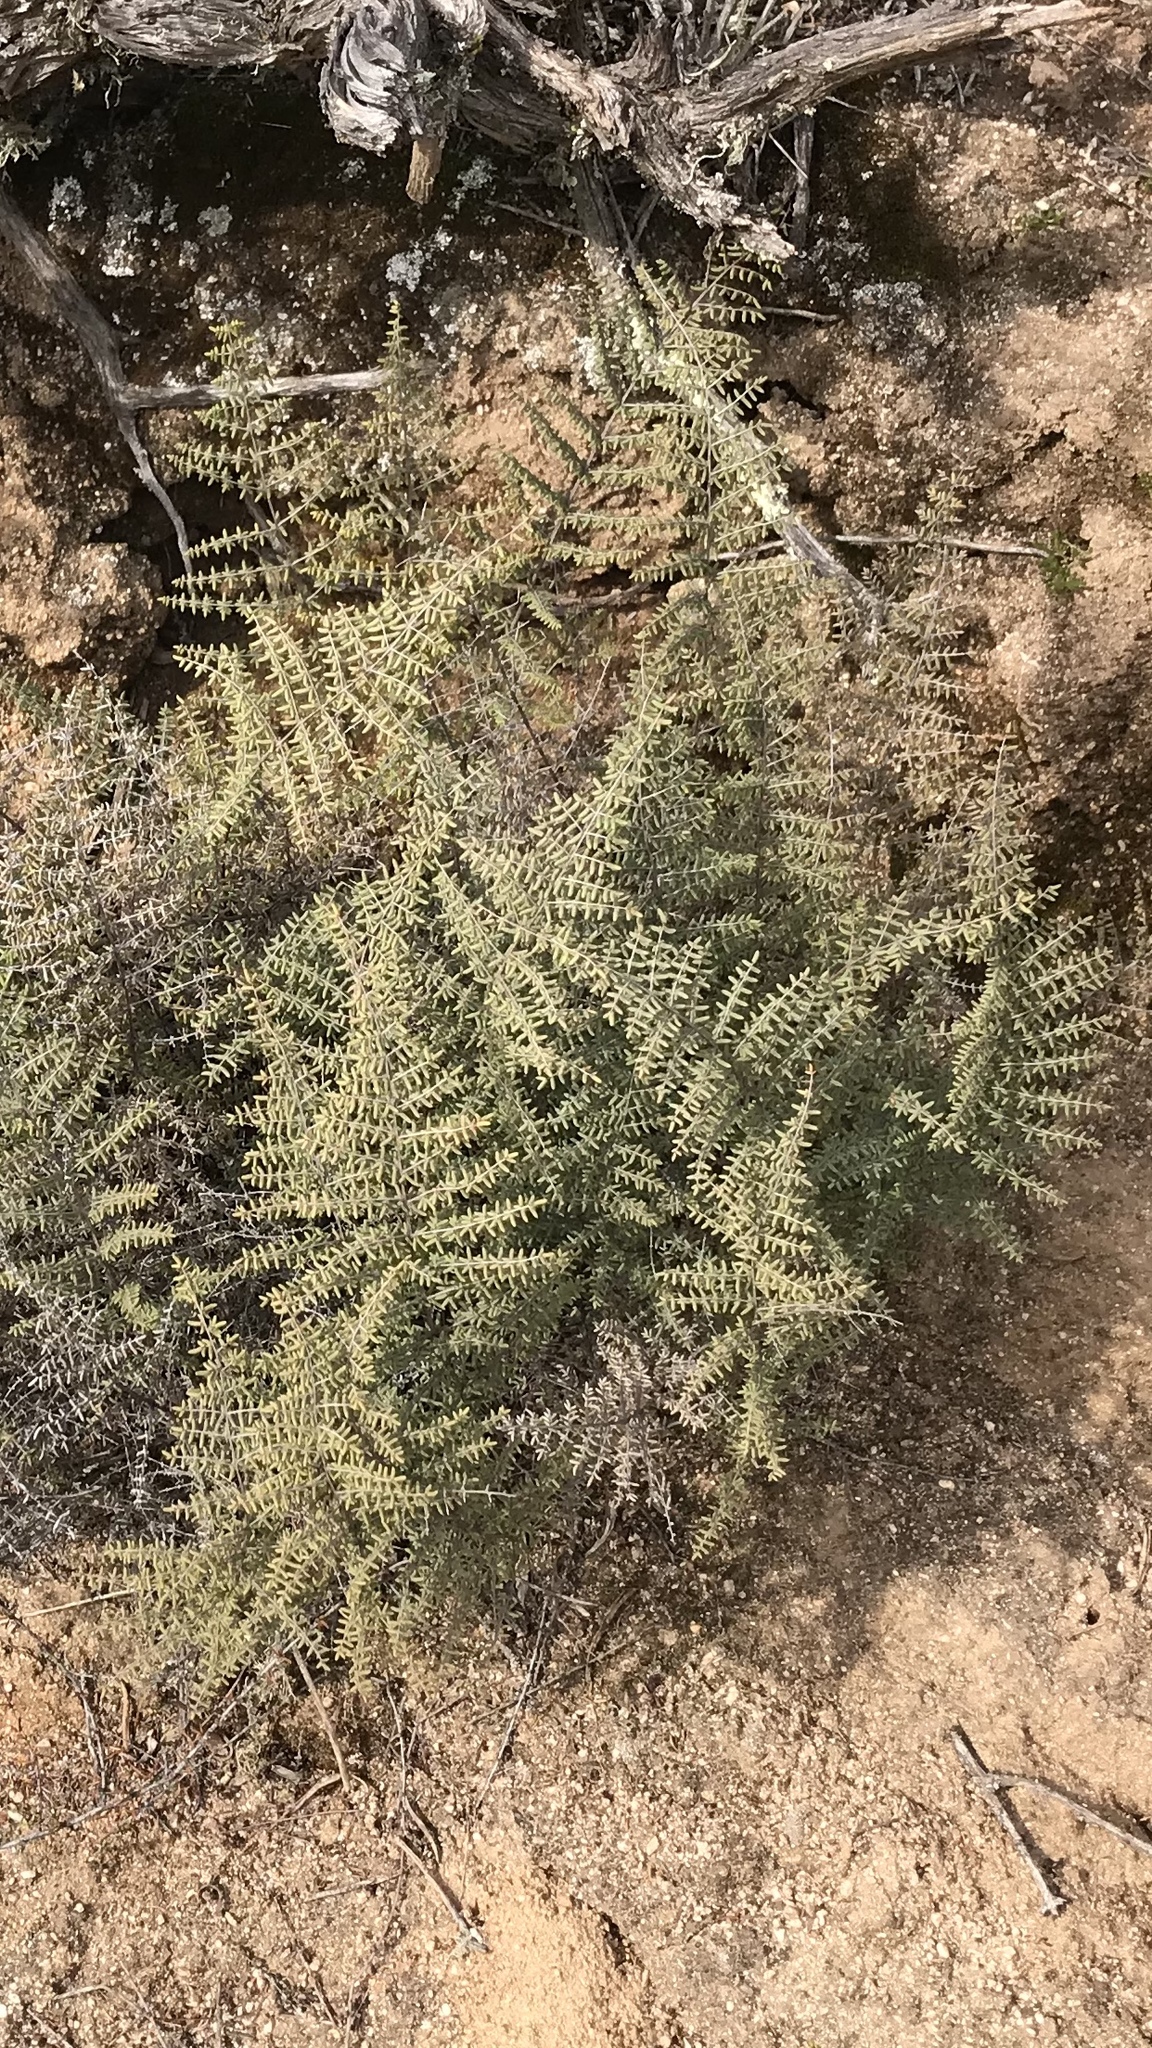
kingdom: Plantae
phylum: Tracheophyta
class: Polypodiopsida
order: Polypodiales
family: Pteridaceae
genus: Pellaea
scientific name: Pellaea mucronata
